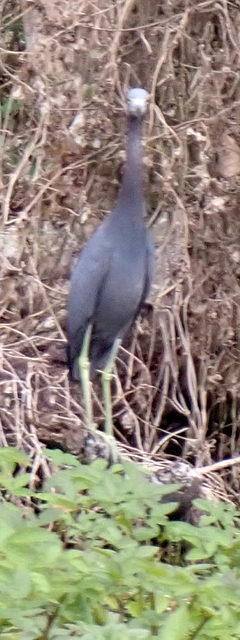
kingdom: Animalia
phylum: Chordata
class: Aves
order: Pelecaniformes
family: Ardeidae
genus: Egretta
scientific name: Egretta caerulea
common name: Little blue heron
